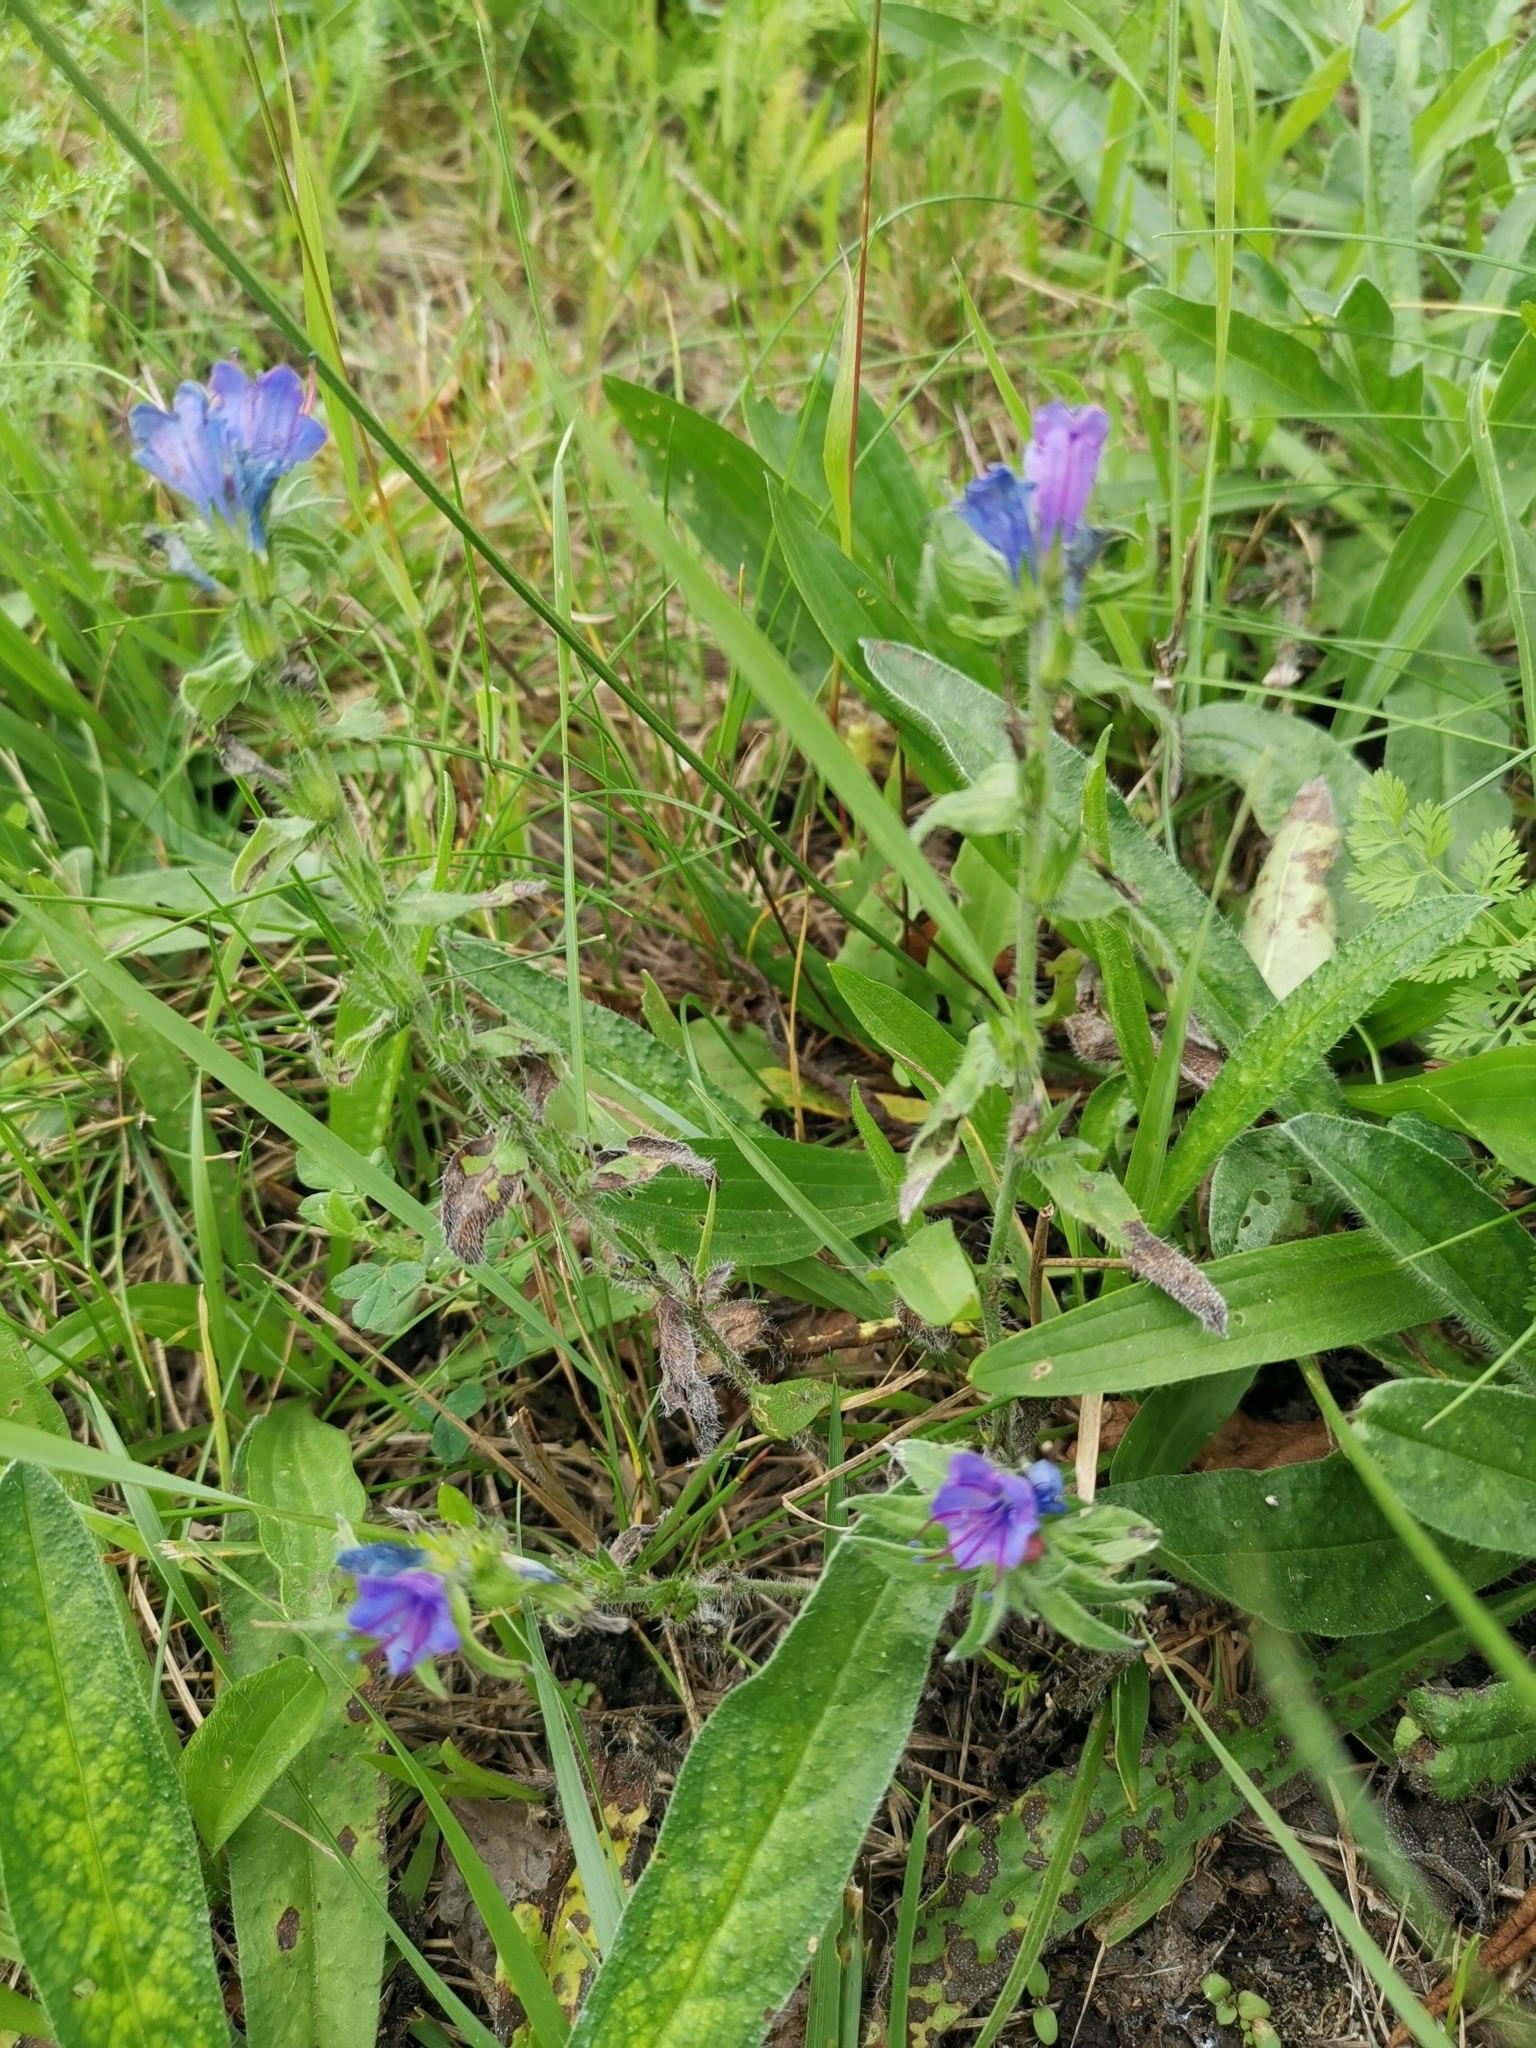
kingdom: Plantae
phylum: Tracheophyta
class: Magnoliopsida
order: Boraginales
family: Boraginaceae
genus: Echium
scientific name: Echium vulgare
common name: Common viper's bugloss
